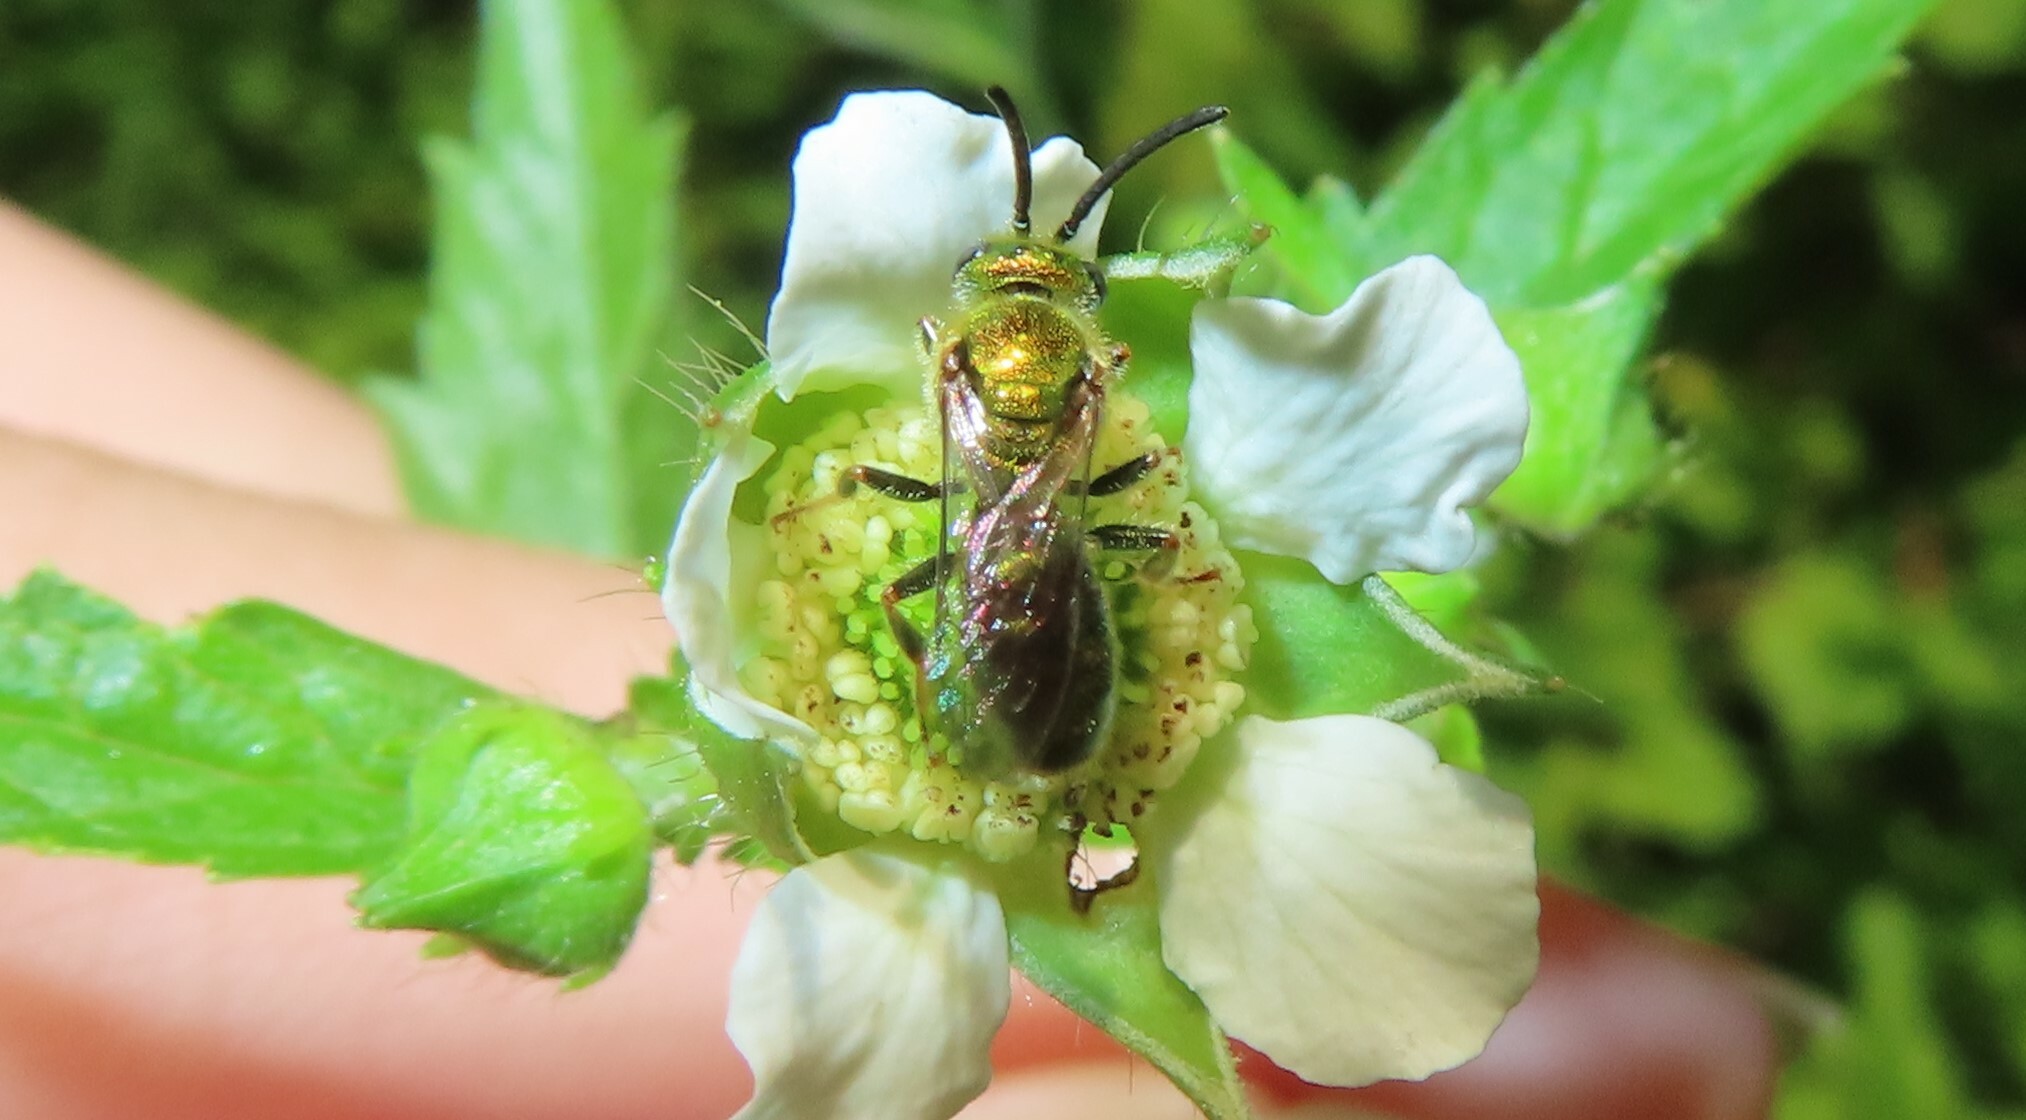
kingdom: Animalia
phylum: Arthropoda
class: Insecta
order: Hymenoptera
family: Halictidae
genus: Augochlorella
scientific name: Augochlorella aurata
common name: Golden sweat bee
